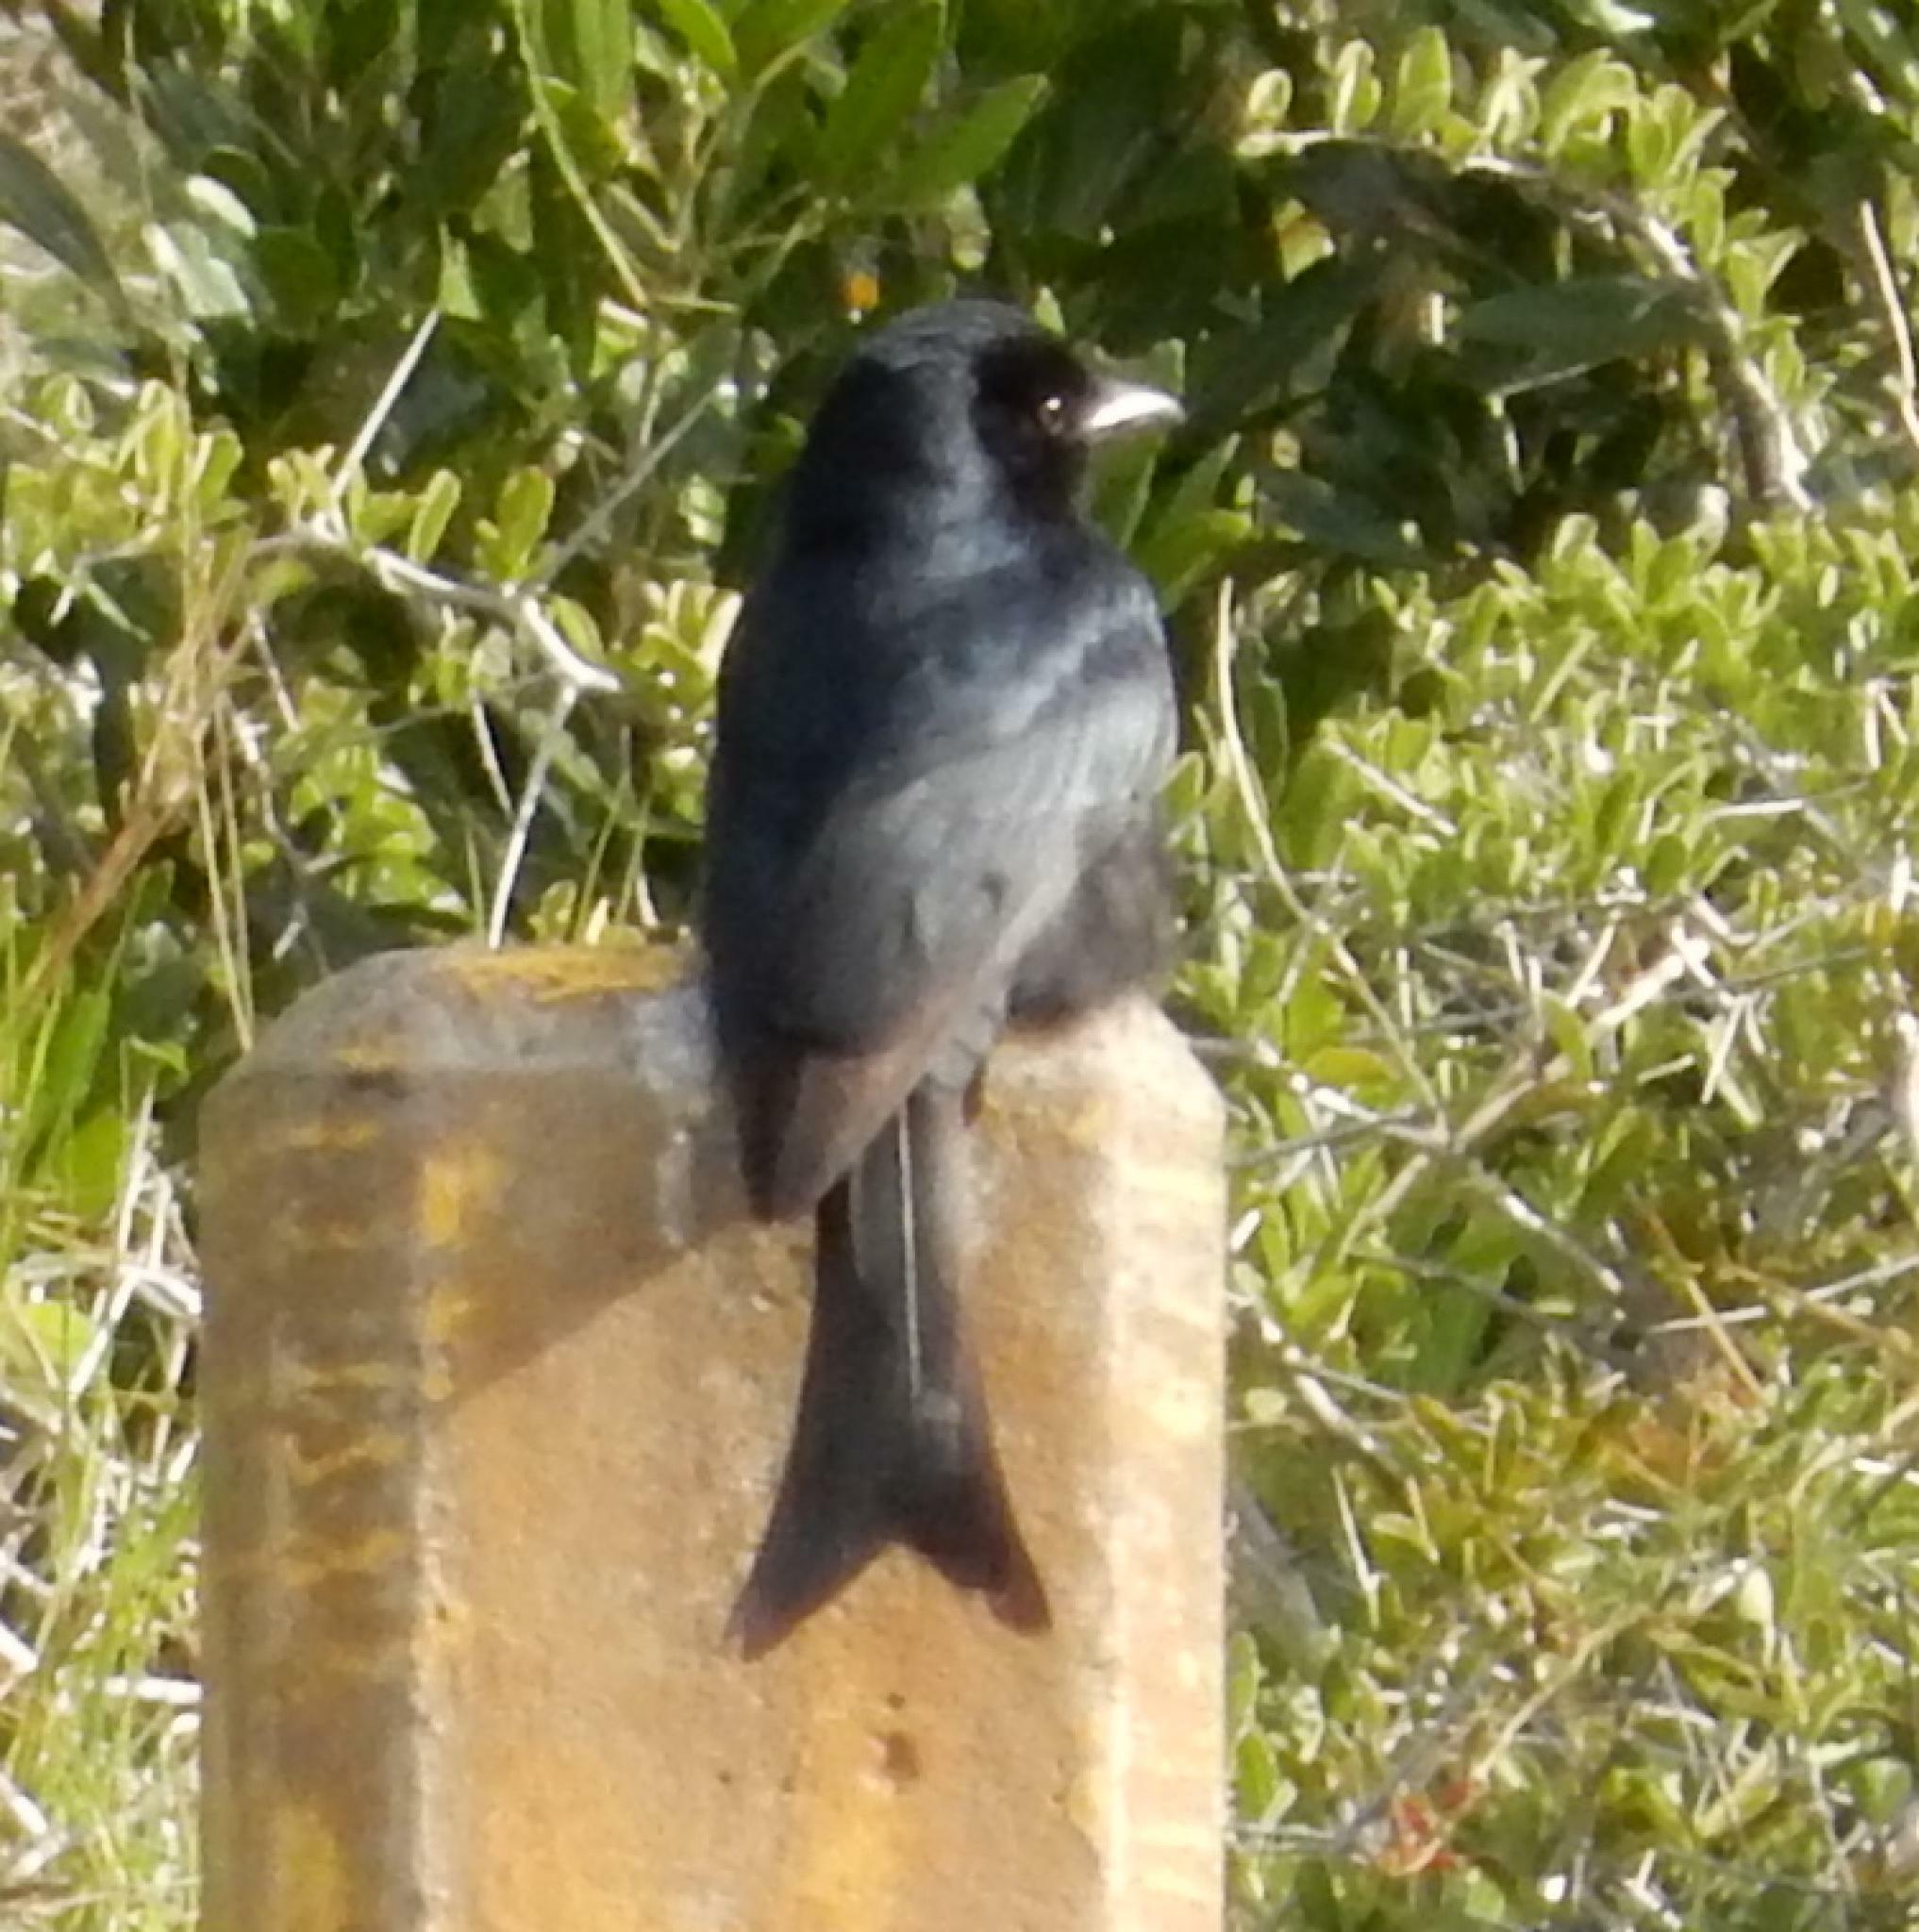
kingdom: Animalia
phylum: Chordata
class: Aves
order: Passeriformes
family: Dicruridae
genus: Dicrurus
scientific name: Dicrurus adsimilis
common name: Fork-tailed drongo
